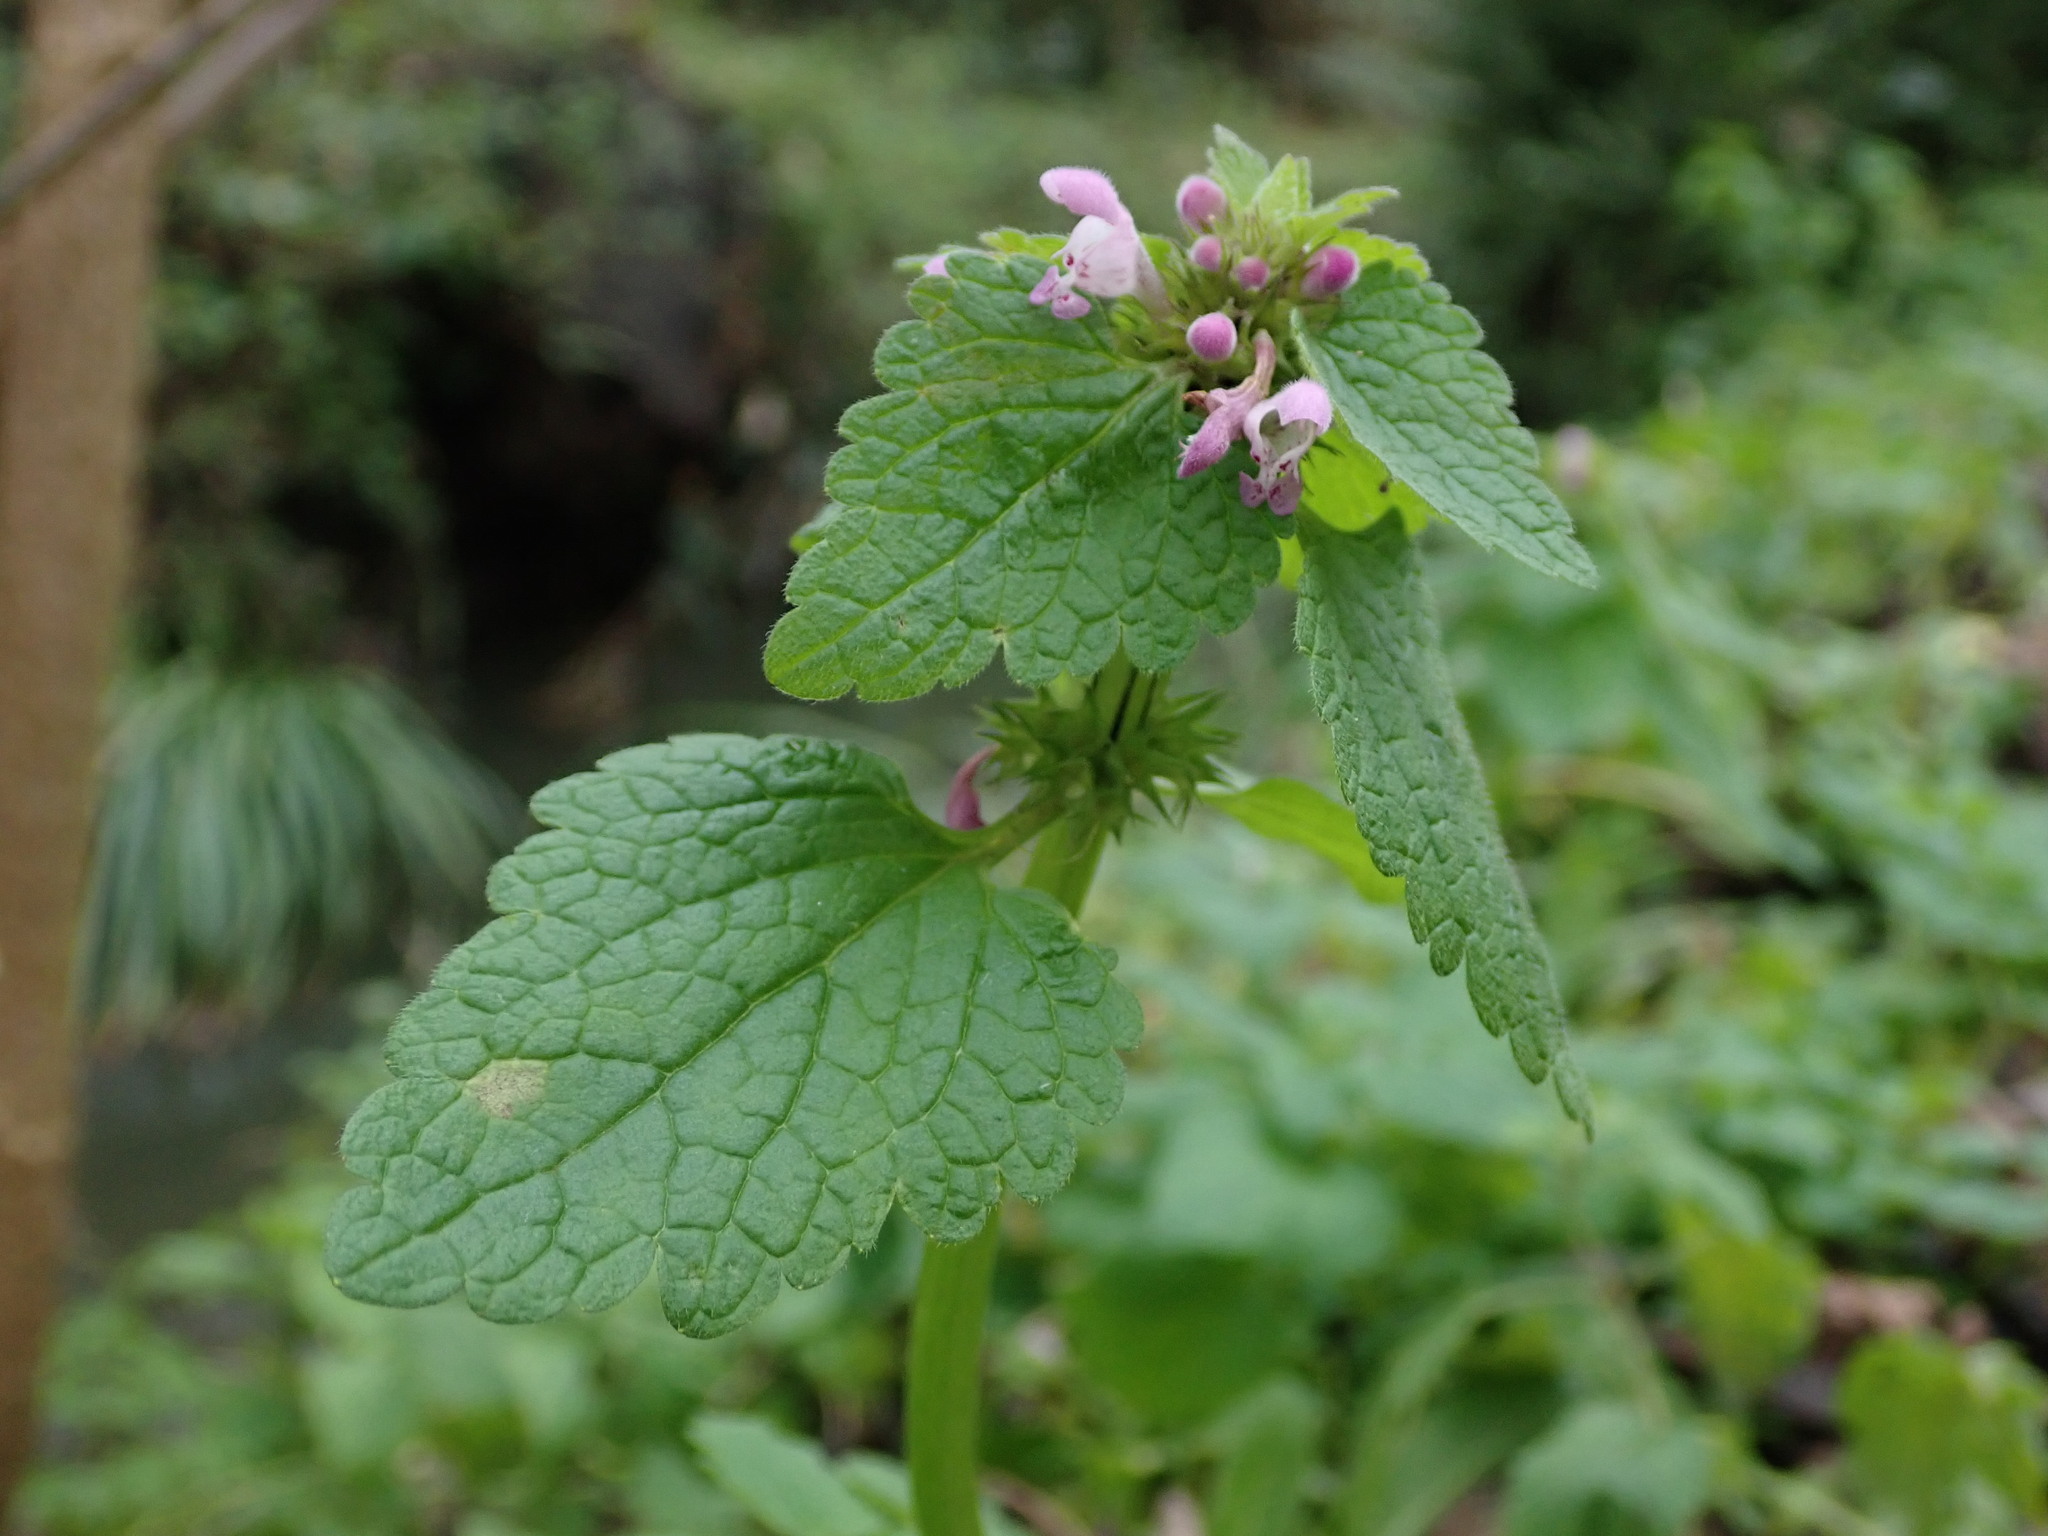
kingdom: Plantae
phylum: Tracheophyta
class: Magnoliopsida
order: Lamiales
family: Lamiaceae
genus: Lamium
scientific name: Lamium purpureum
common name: Red dead-nettle
